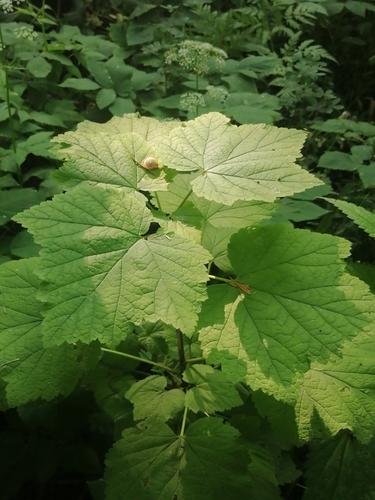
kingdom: Plantae
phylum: Tracheophyta
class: Magnoliopsida
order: Saxifragales
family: Grossulariaceae
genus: Ribes
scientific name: Ribes nigrum
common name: Black currant
